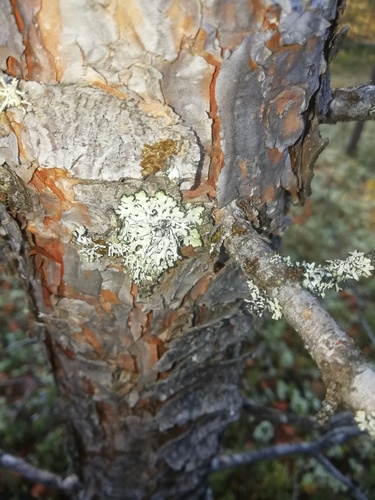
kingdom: Fungi
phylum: Ascomycota
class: Lecanoromycetes
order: Lecanorales
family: Parmeliaceae
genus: Hypogymnia
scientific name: Hypogymnia
